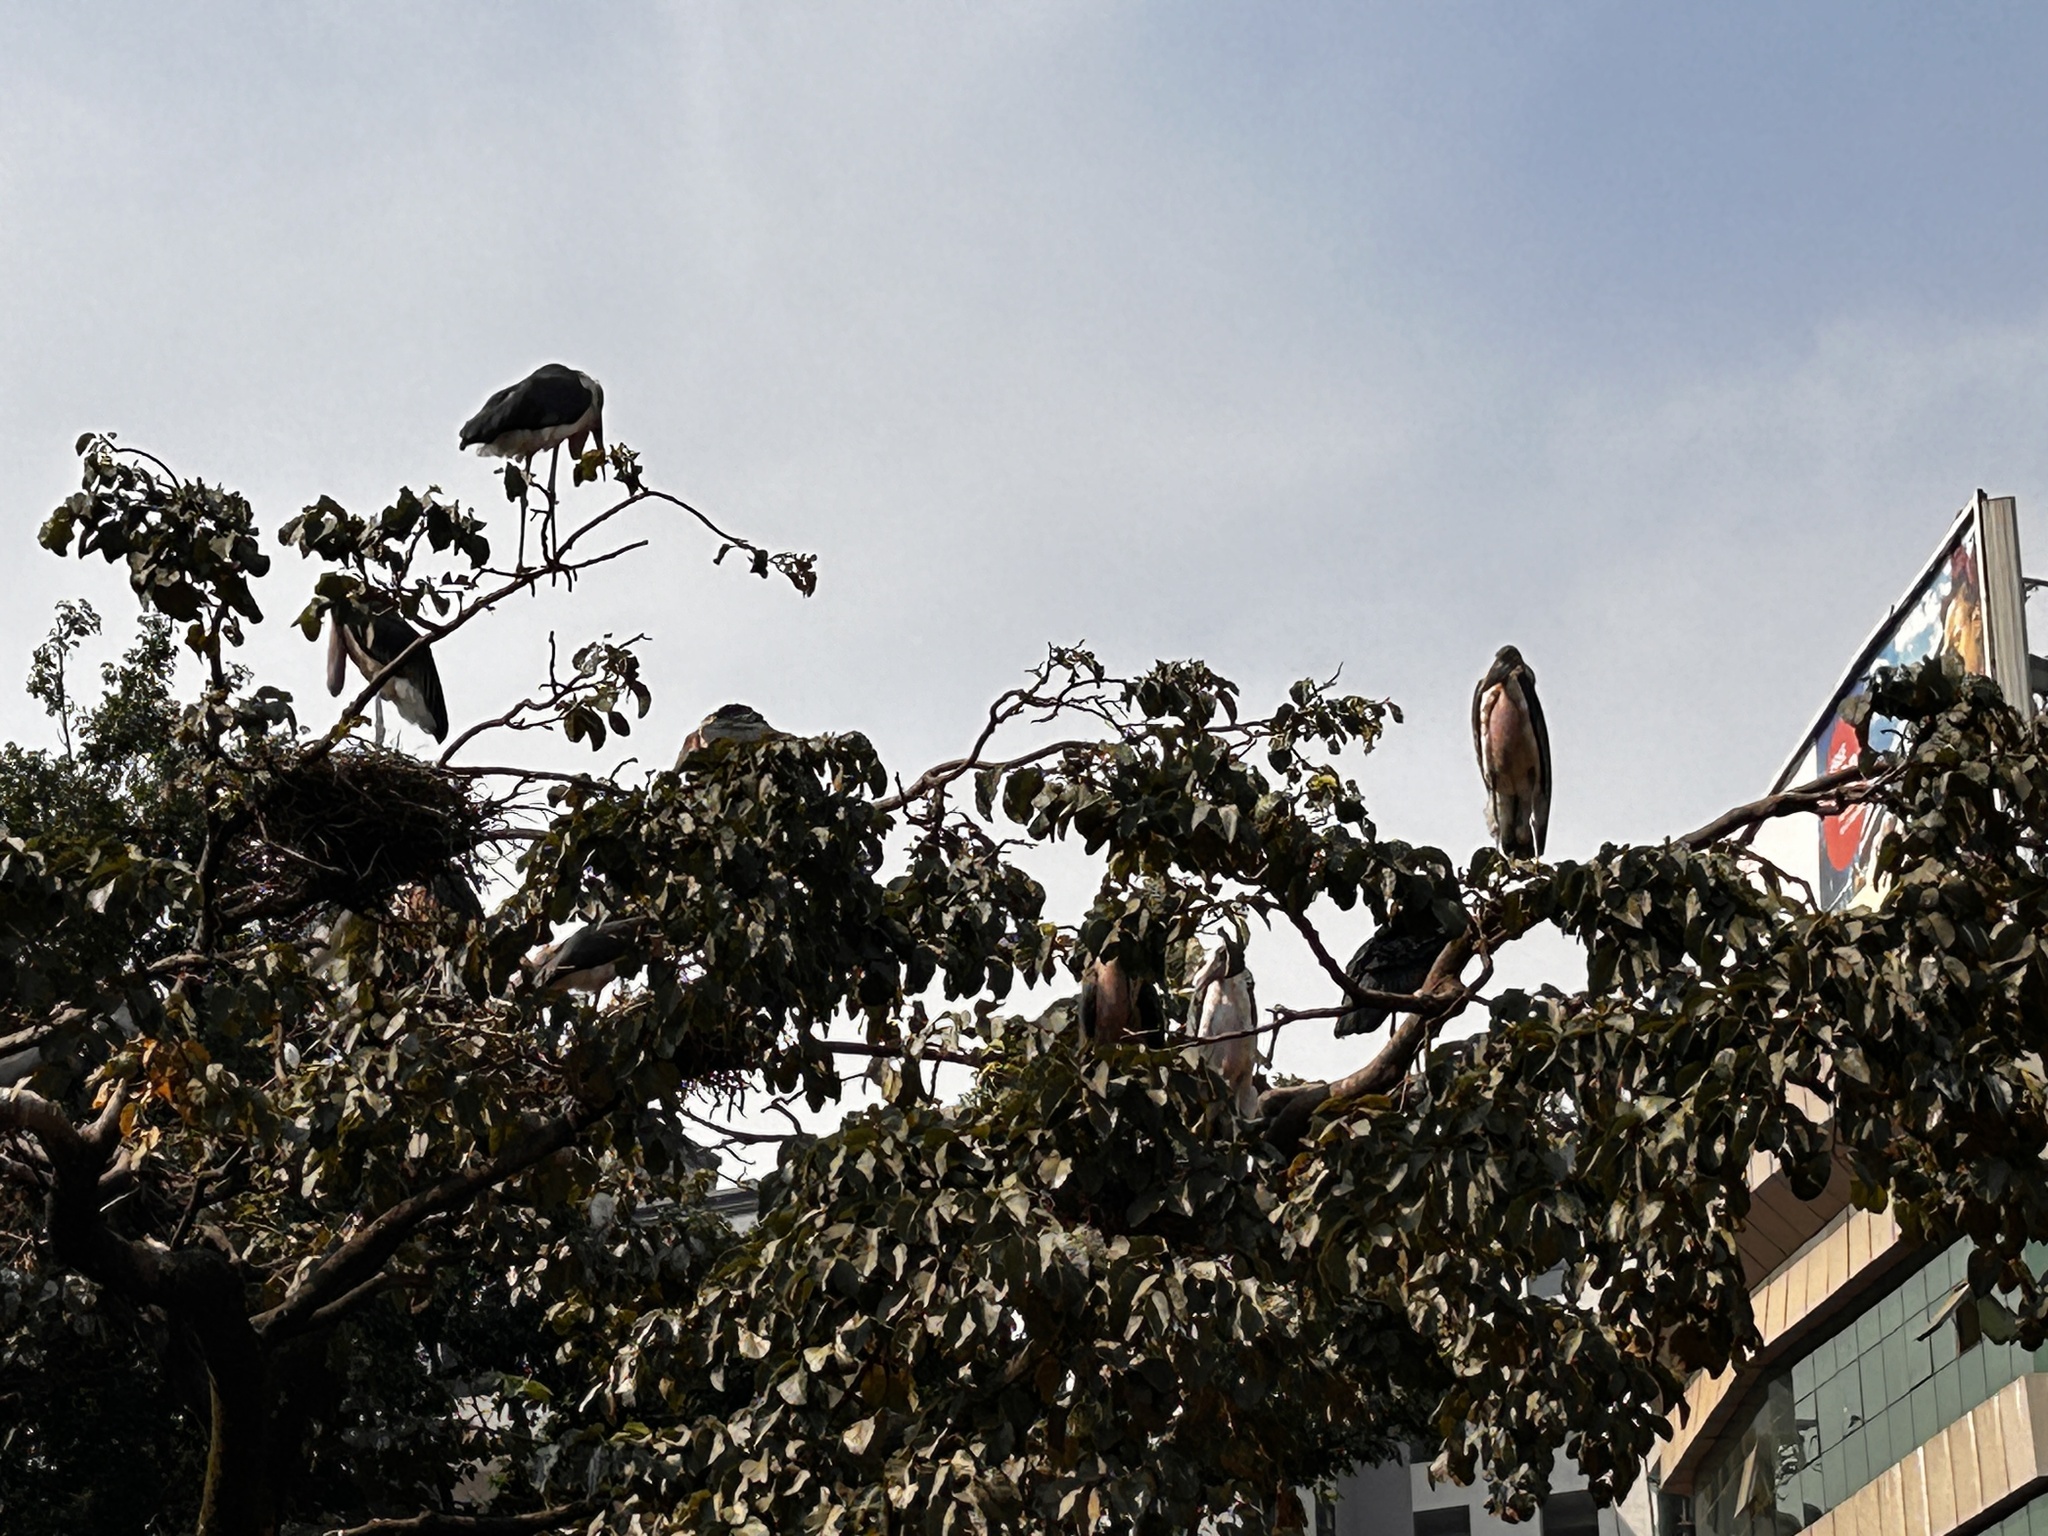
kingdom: Animalia
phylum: Chordata
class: Aves
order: Ciconiiformes
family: Ciconiidae
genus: Leptoptilos
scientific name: Leptoptilos crumenifer
